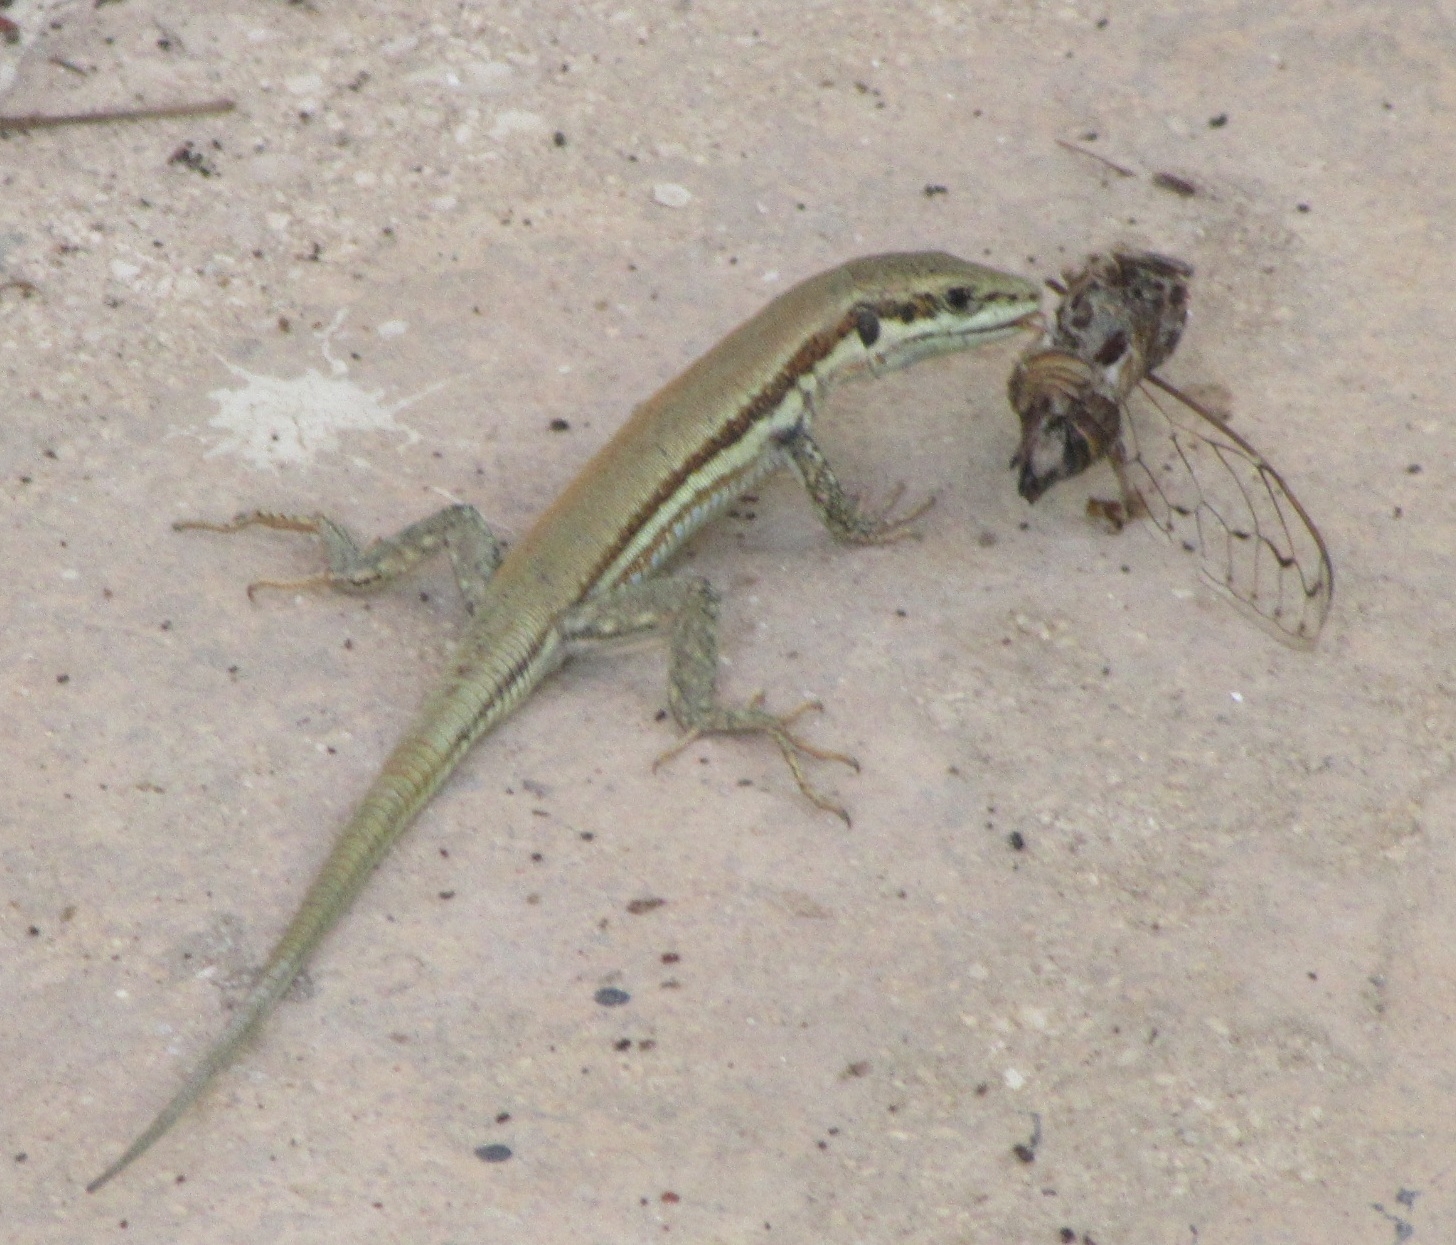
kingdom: Animalia
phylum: Chordata
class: Squamata
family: Lacertidae
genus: Phoenicolacerta
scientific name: Phoenicolacerta troodica
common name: Troodos wall lizard
